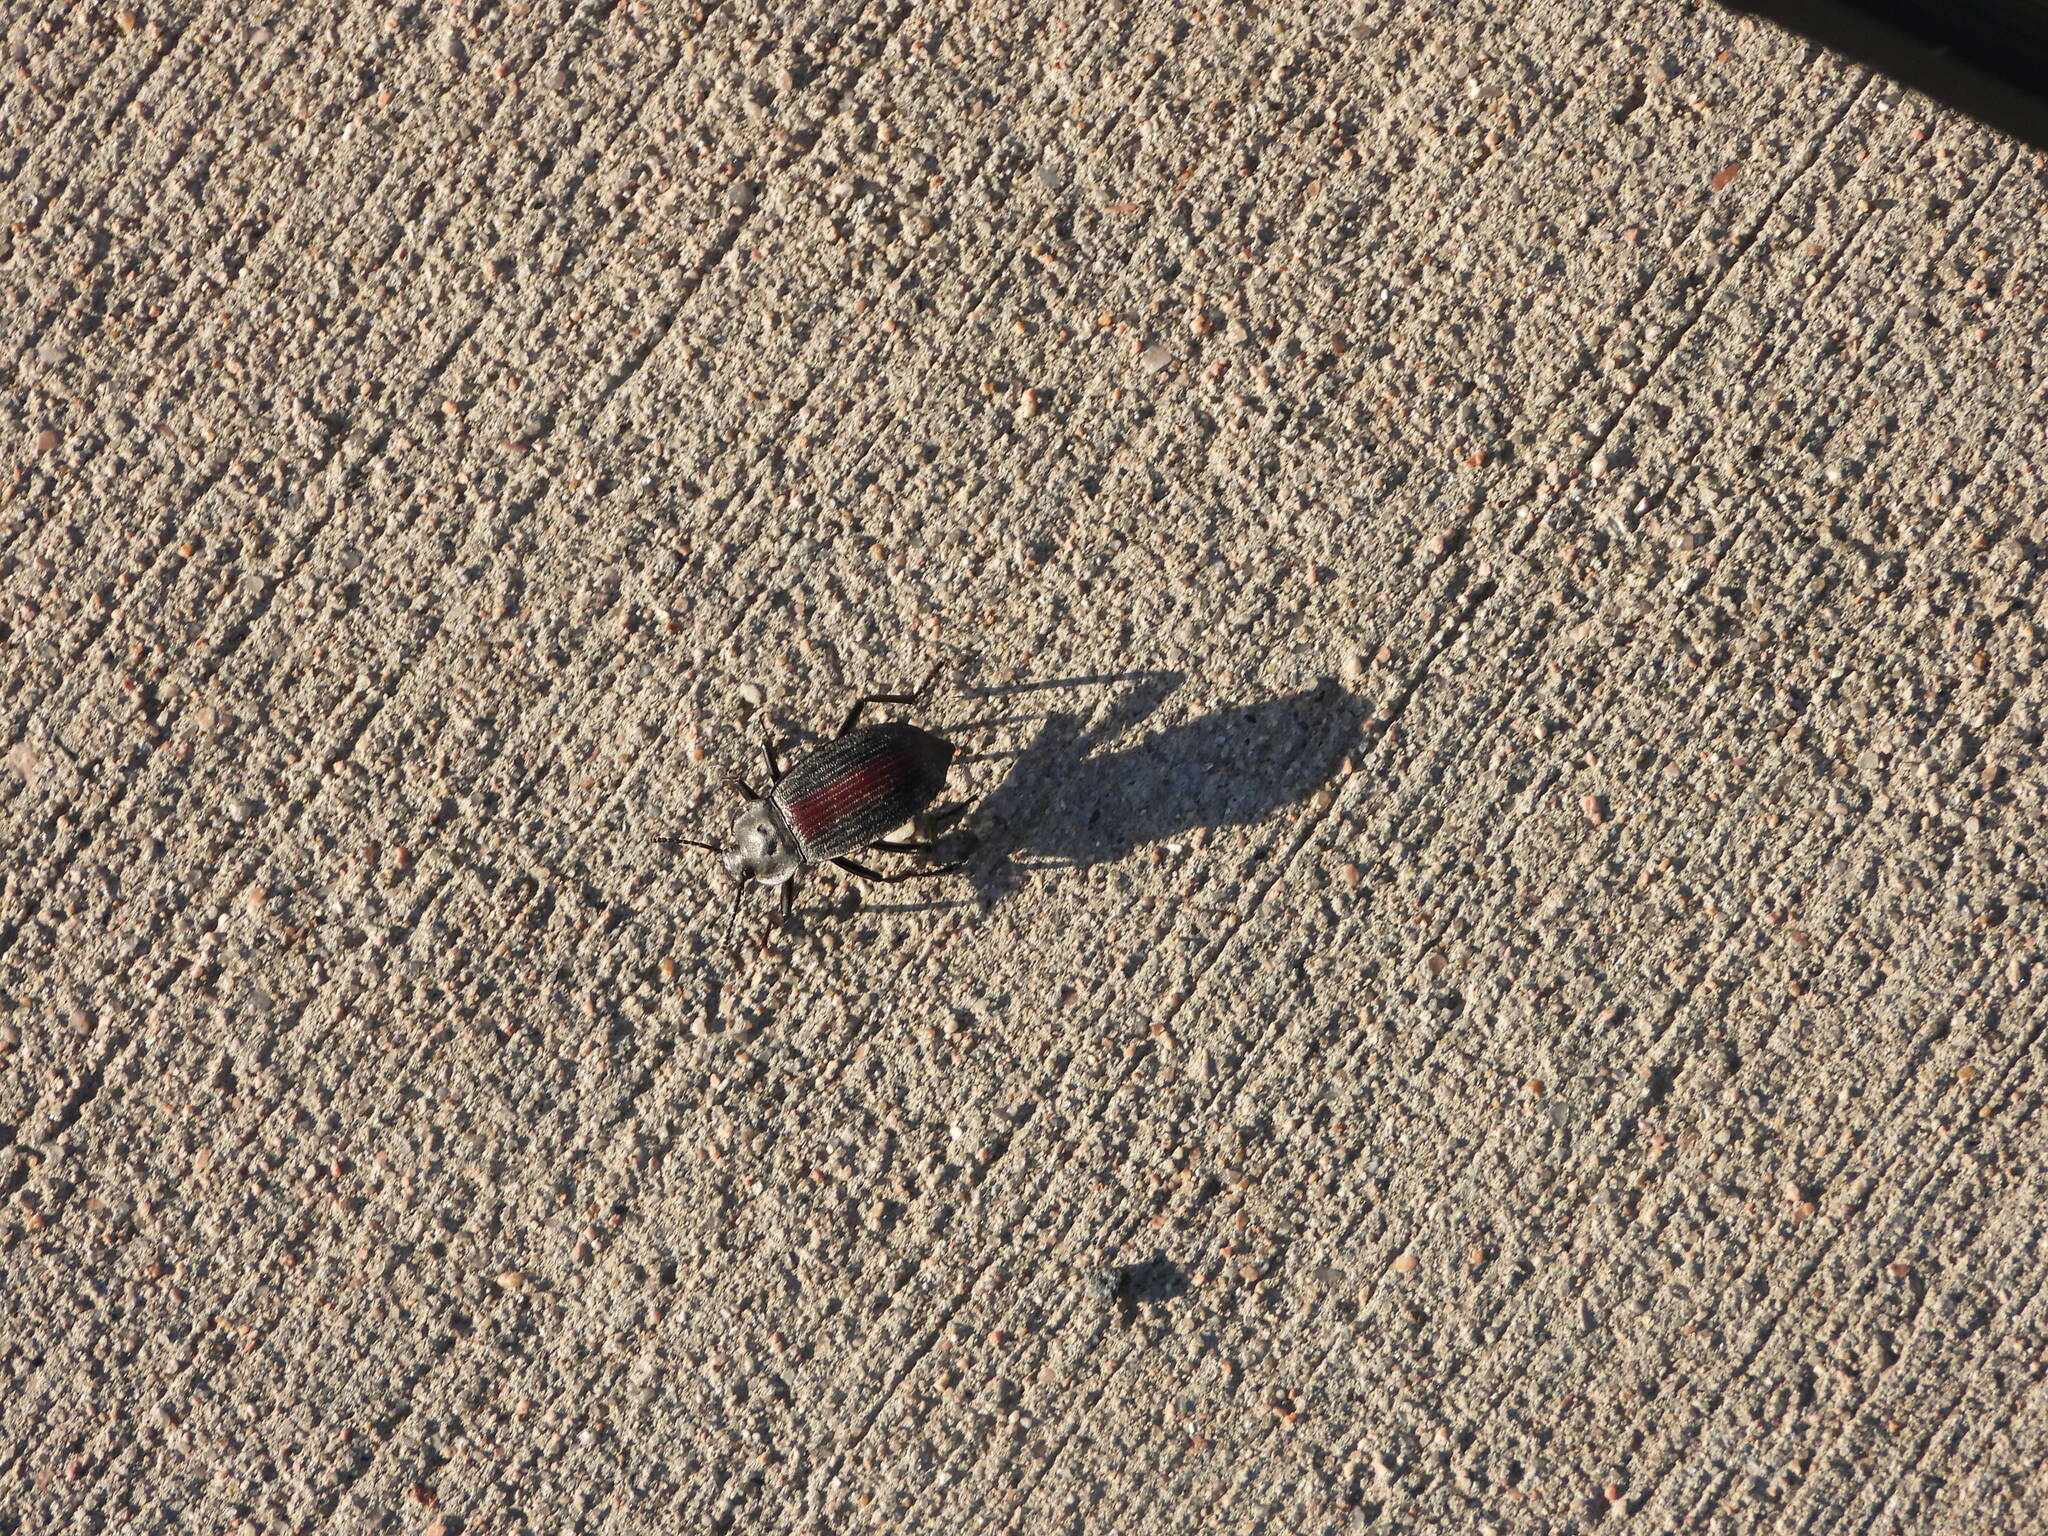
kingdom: Animalia
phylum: Arthropoda
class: Insecta
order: Coleoptera
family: Tenebrionidae
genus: Eleodes
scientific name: Eleodes suturalis
